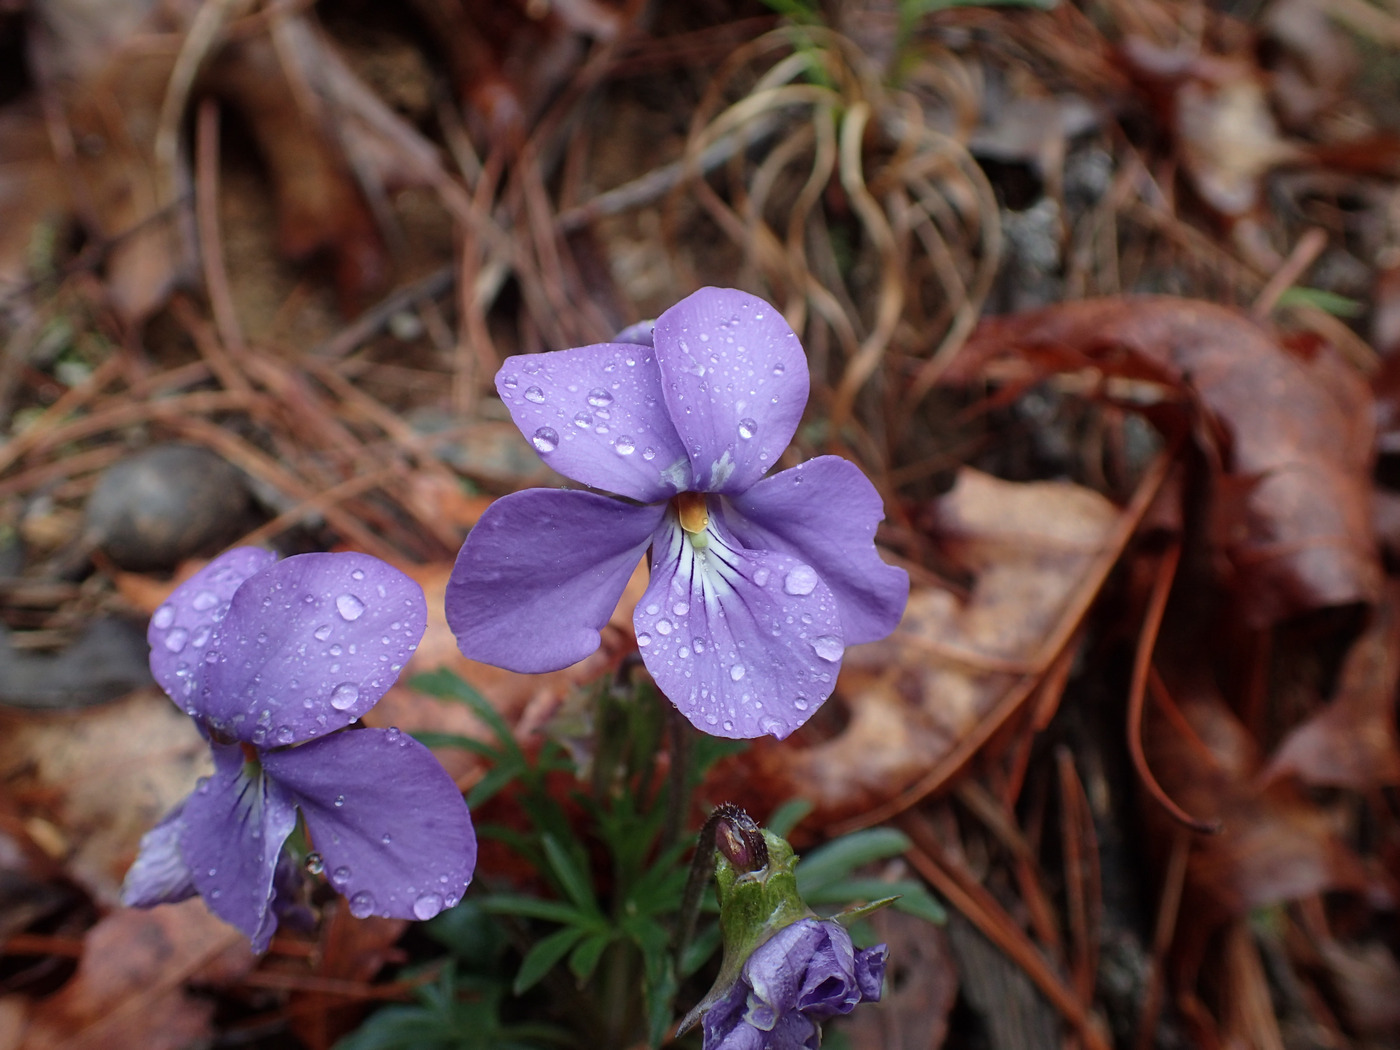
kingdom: Plantae
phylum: Tracheophyta
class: Magnoliopsida
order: Malpighiales
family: Violaceae
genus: Viola
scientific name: Viola pedata
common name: Pansy violet
